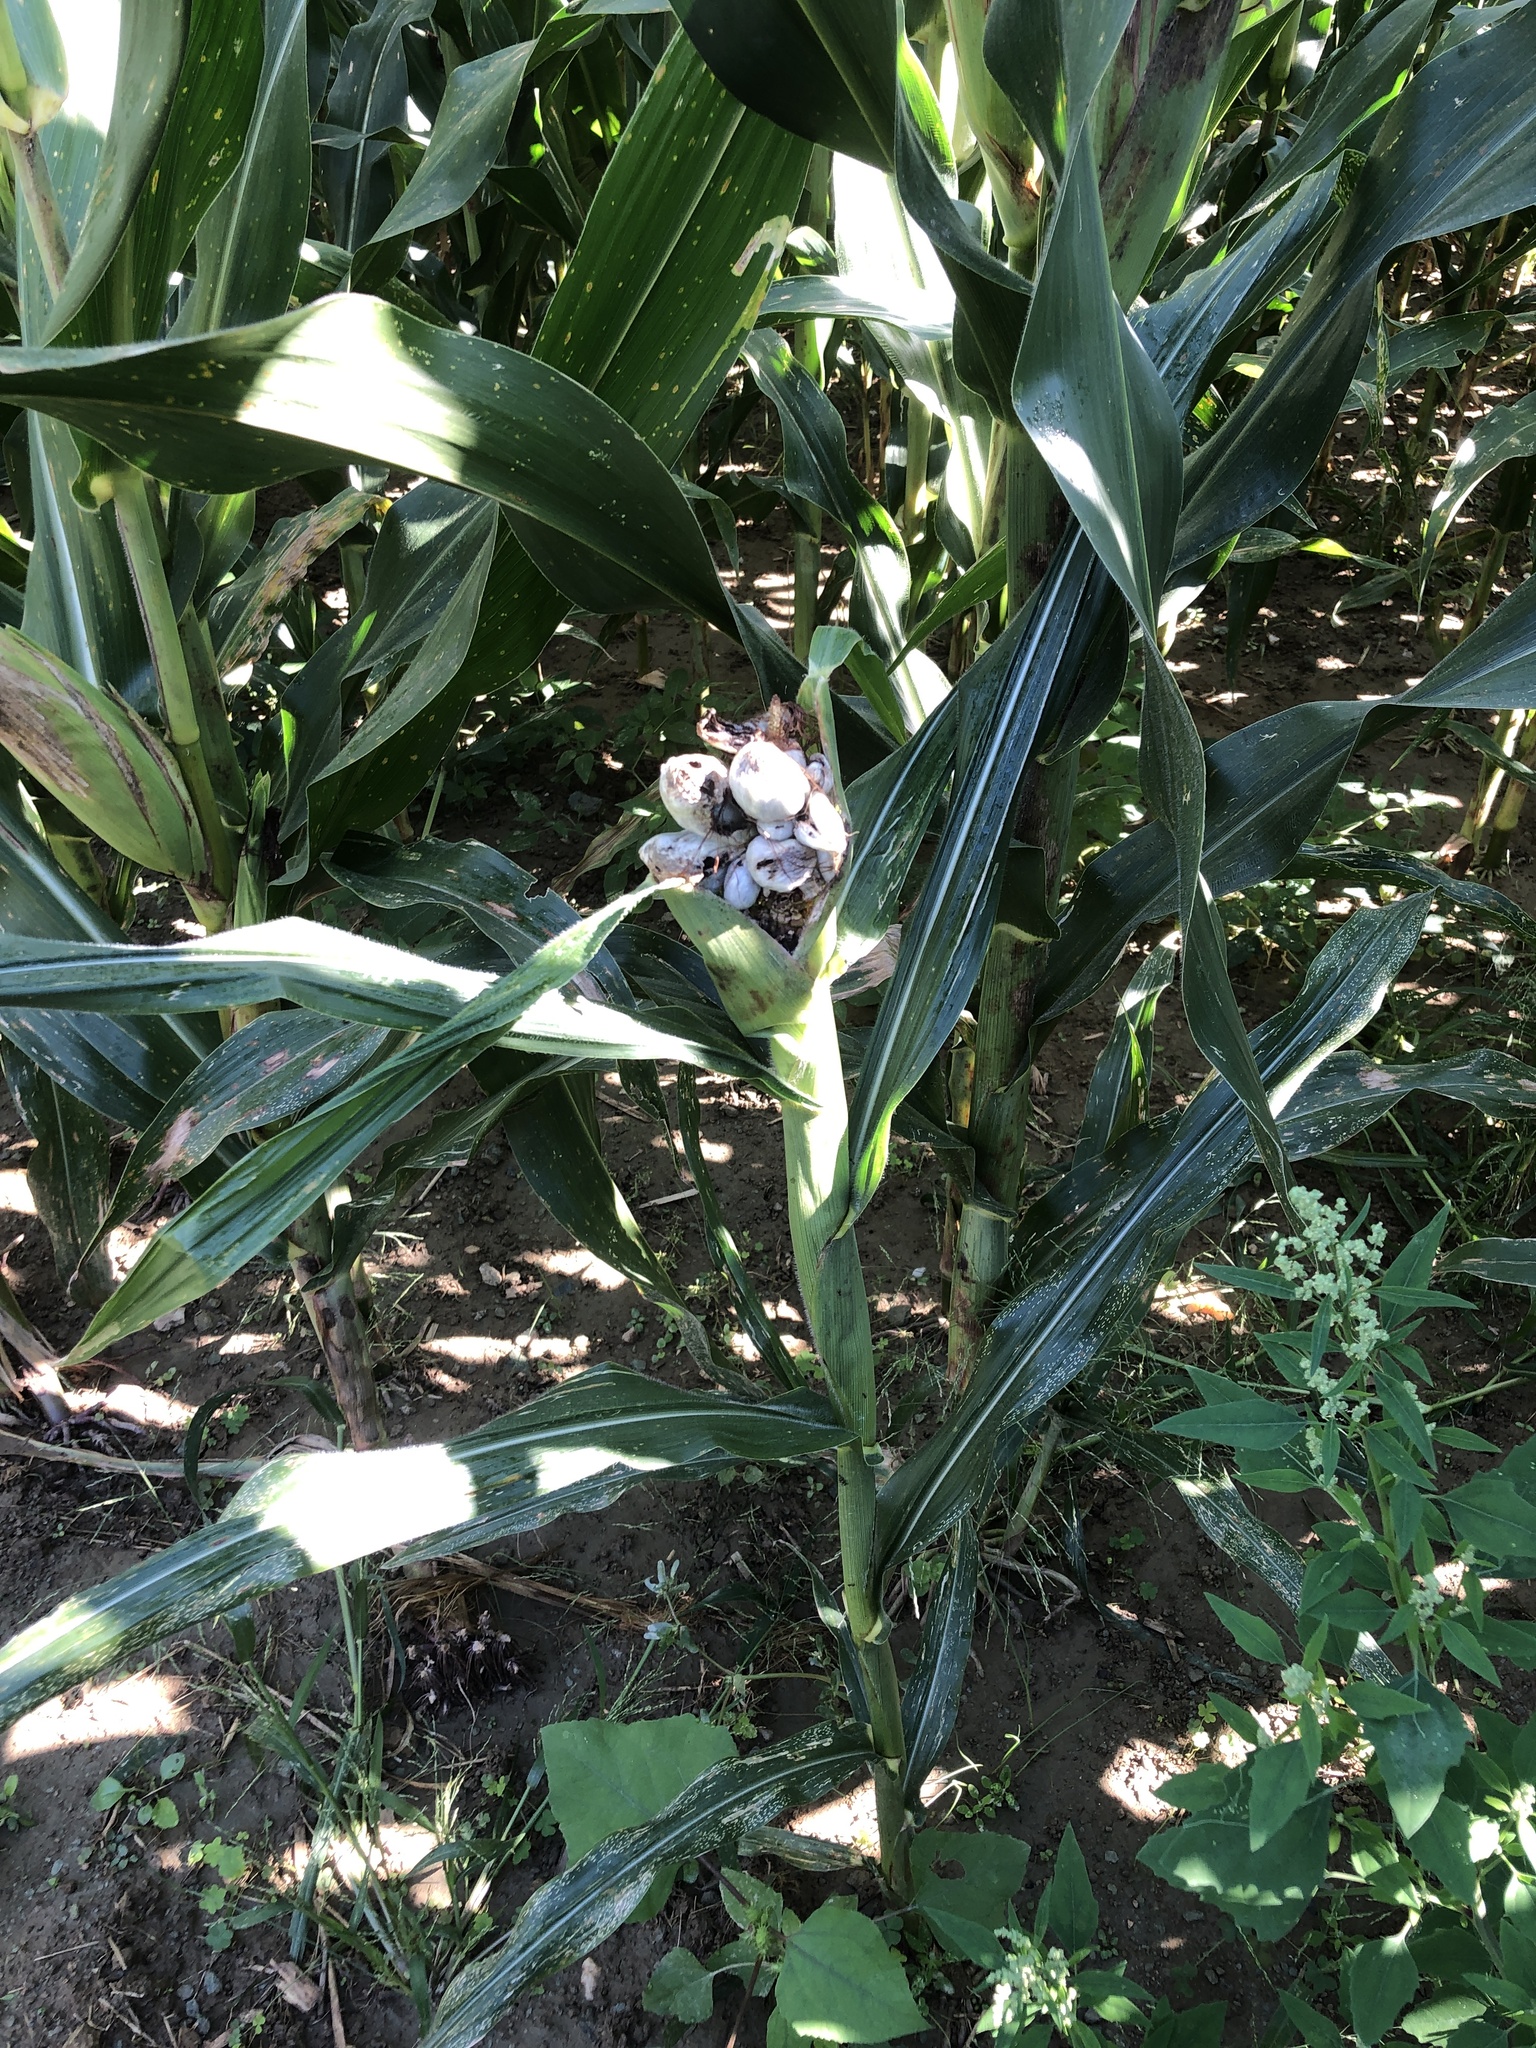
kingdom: Fungi
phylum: Basidiomycota
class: Ustilaginomycetes
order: Ustilaginales
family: Ustilaginaceae
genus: Mycosarcoma
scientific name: Mycosarcoma maydis
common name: Corn smut
